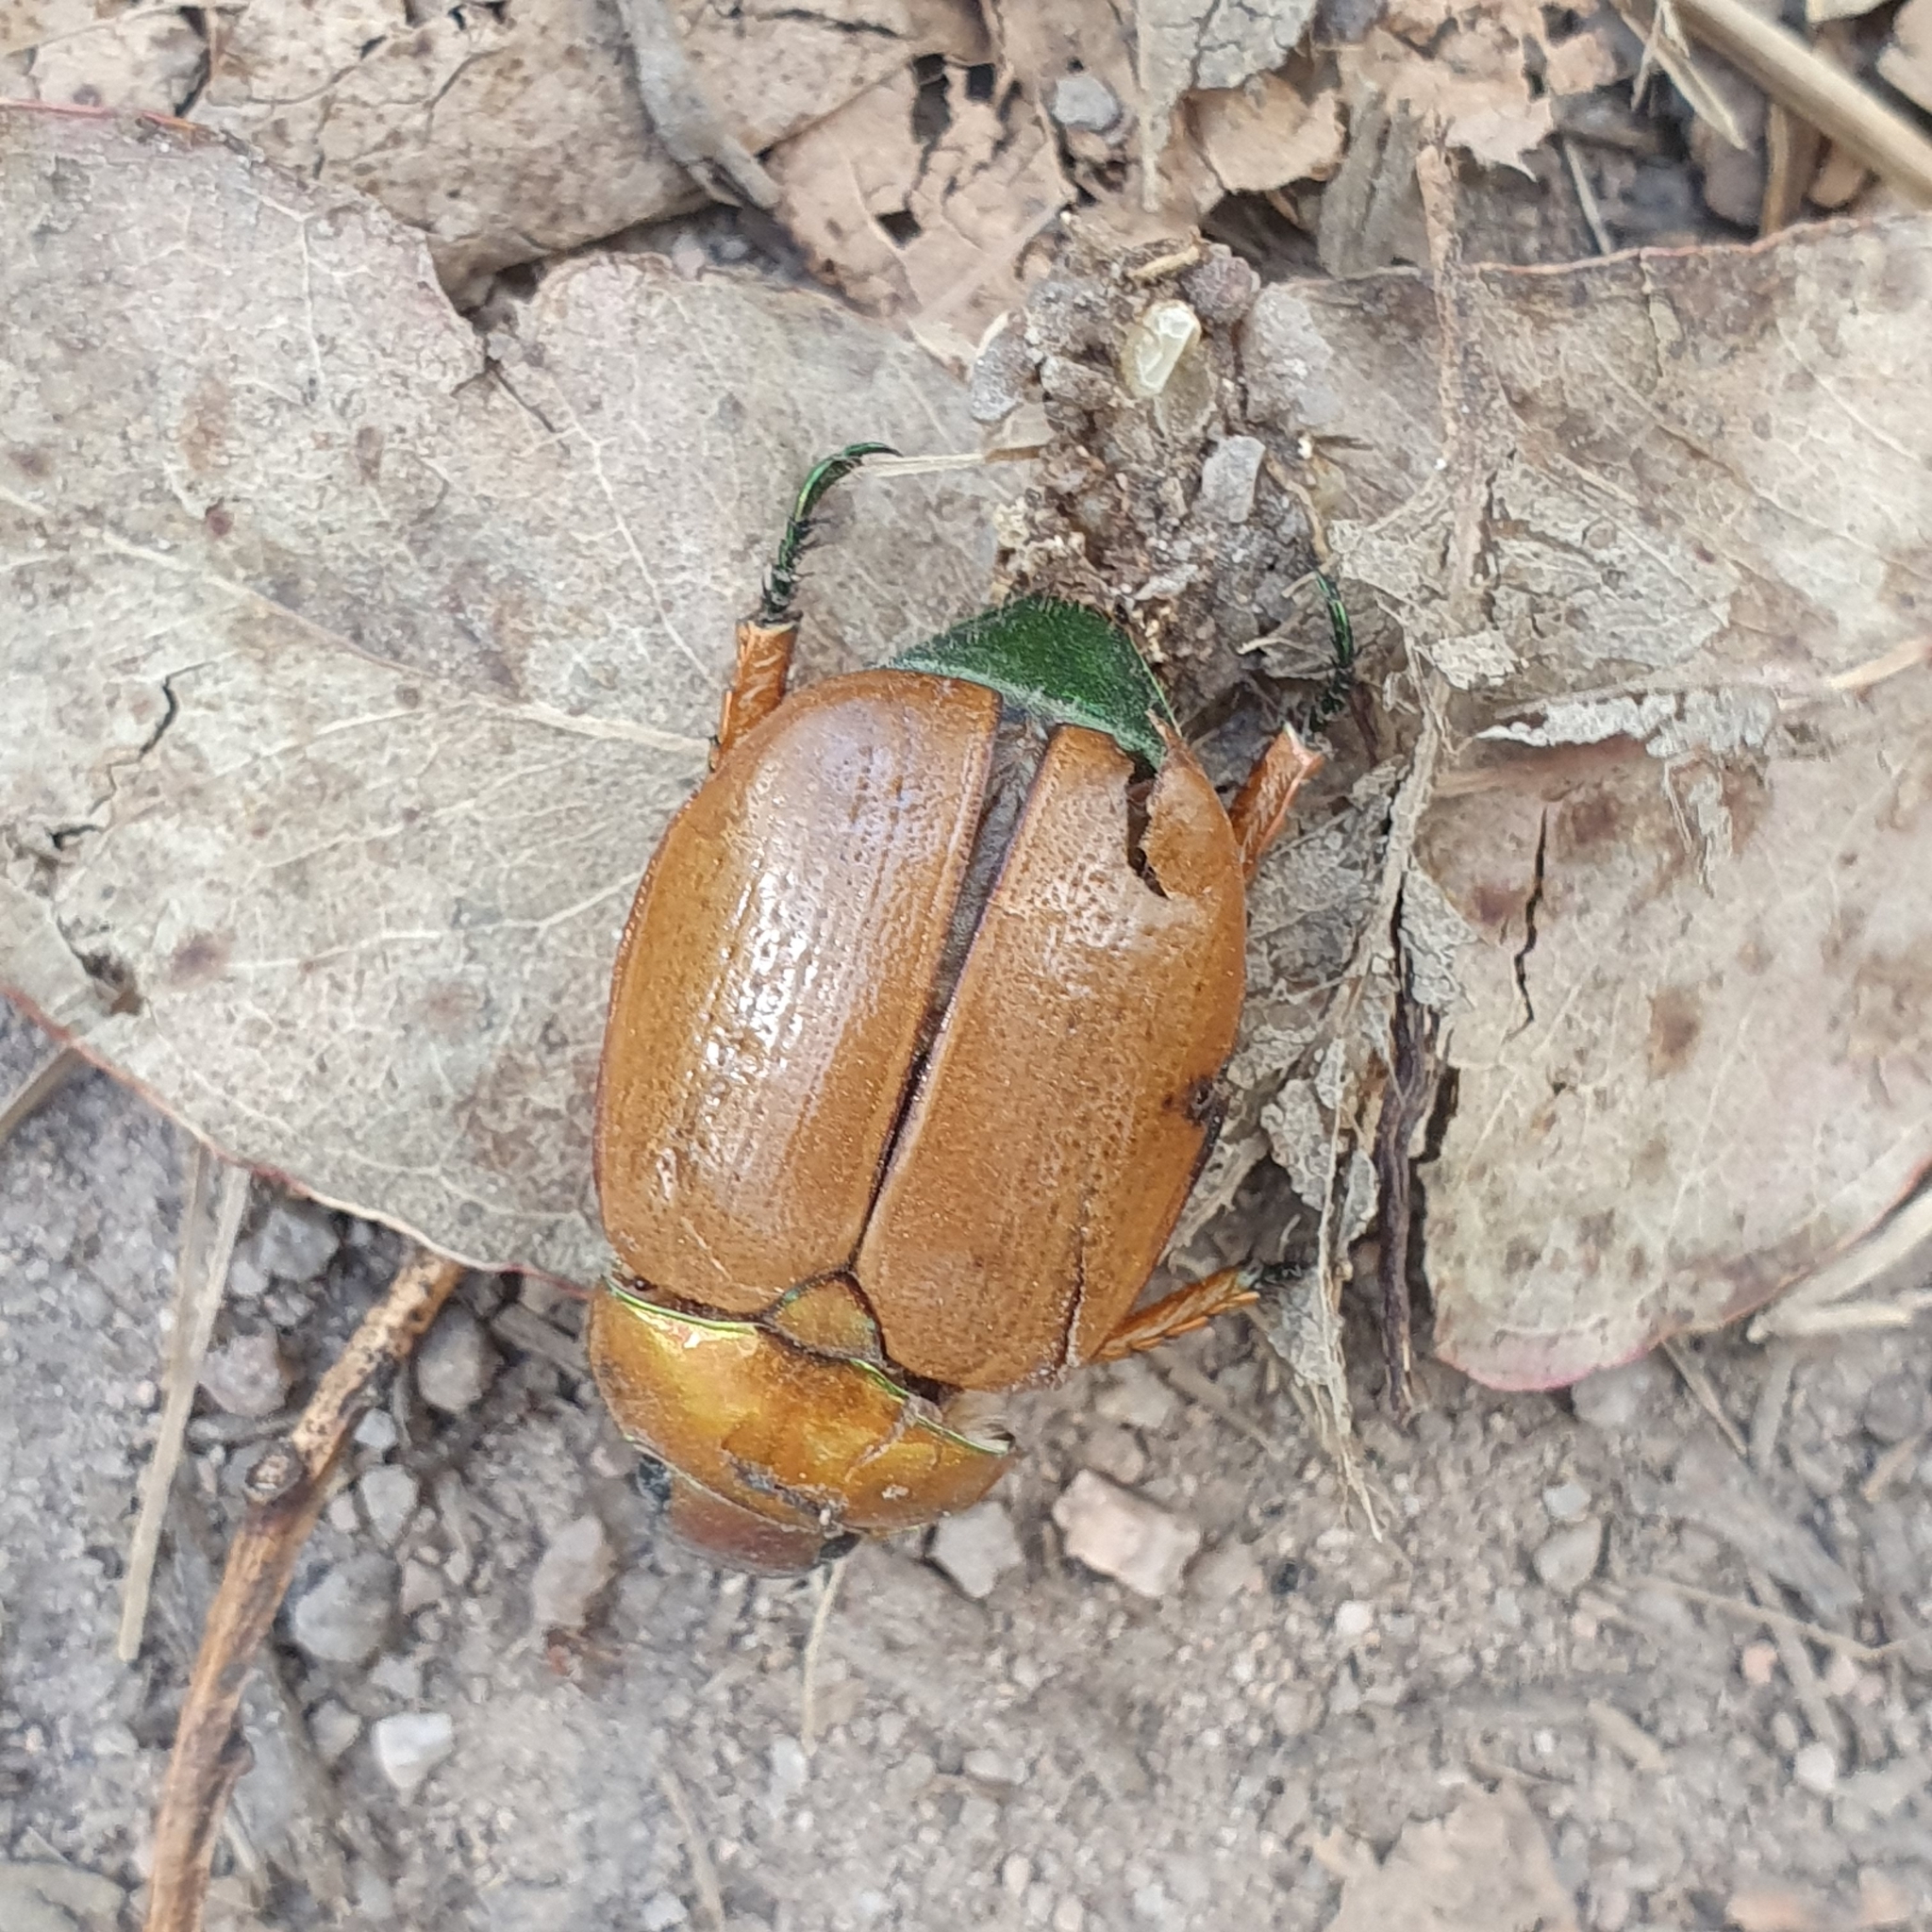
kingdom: Animalia
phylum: Arthropoda
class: Insecta
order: Coleoptera
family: Scarabaeidae
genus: Anoplognathus
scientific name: Anoplognathus brunnipennis
